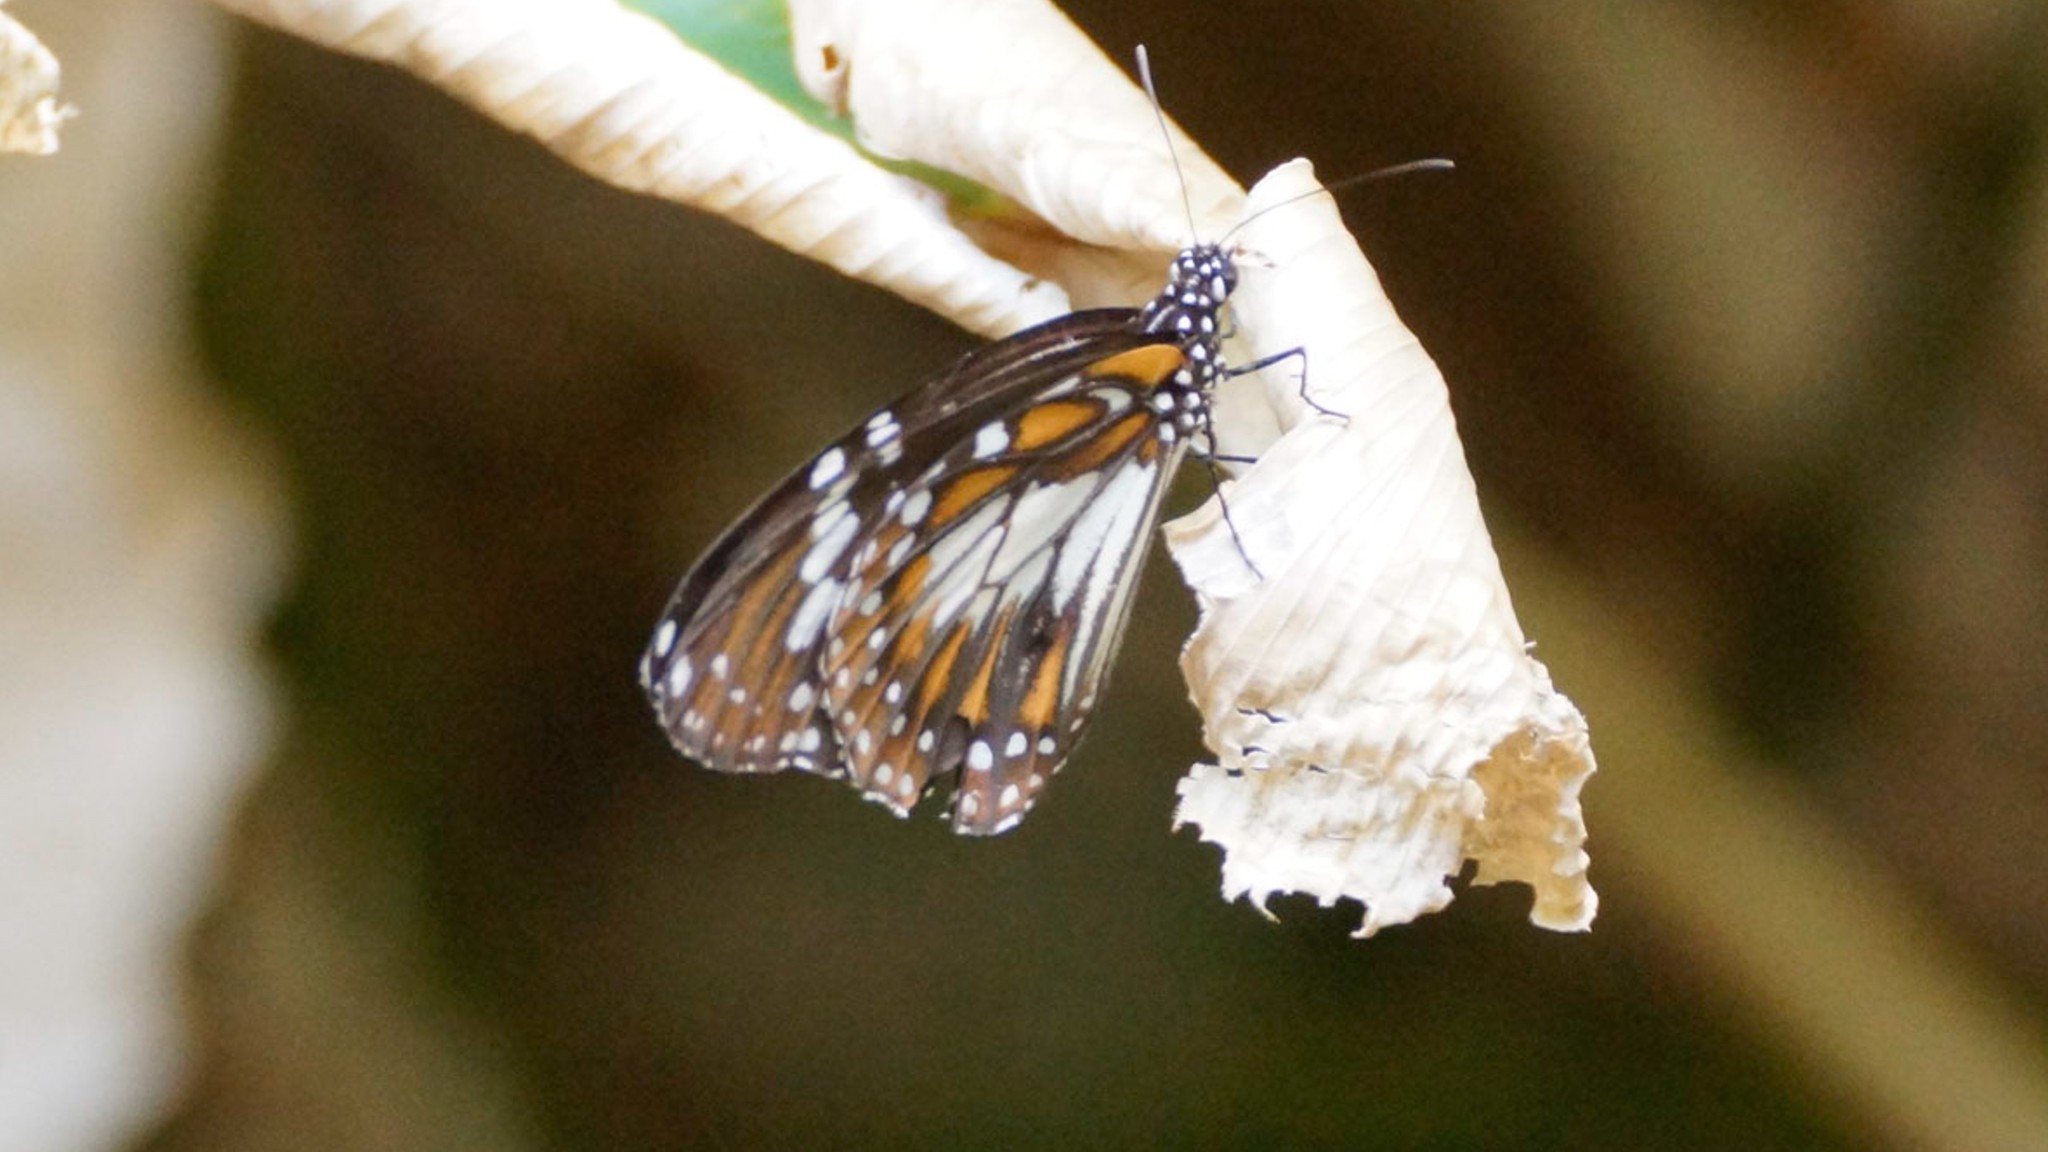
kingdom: Animalia
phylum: Arthropoda
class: Insecta
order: Lepidoptera
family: Nymphalidae
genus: Danaus
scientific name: Danaus affinis
